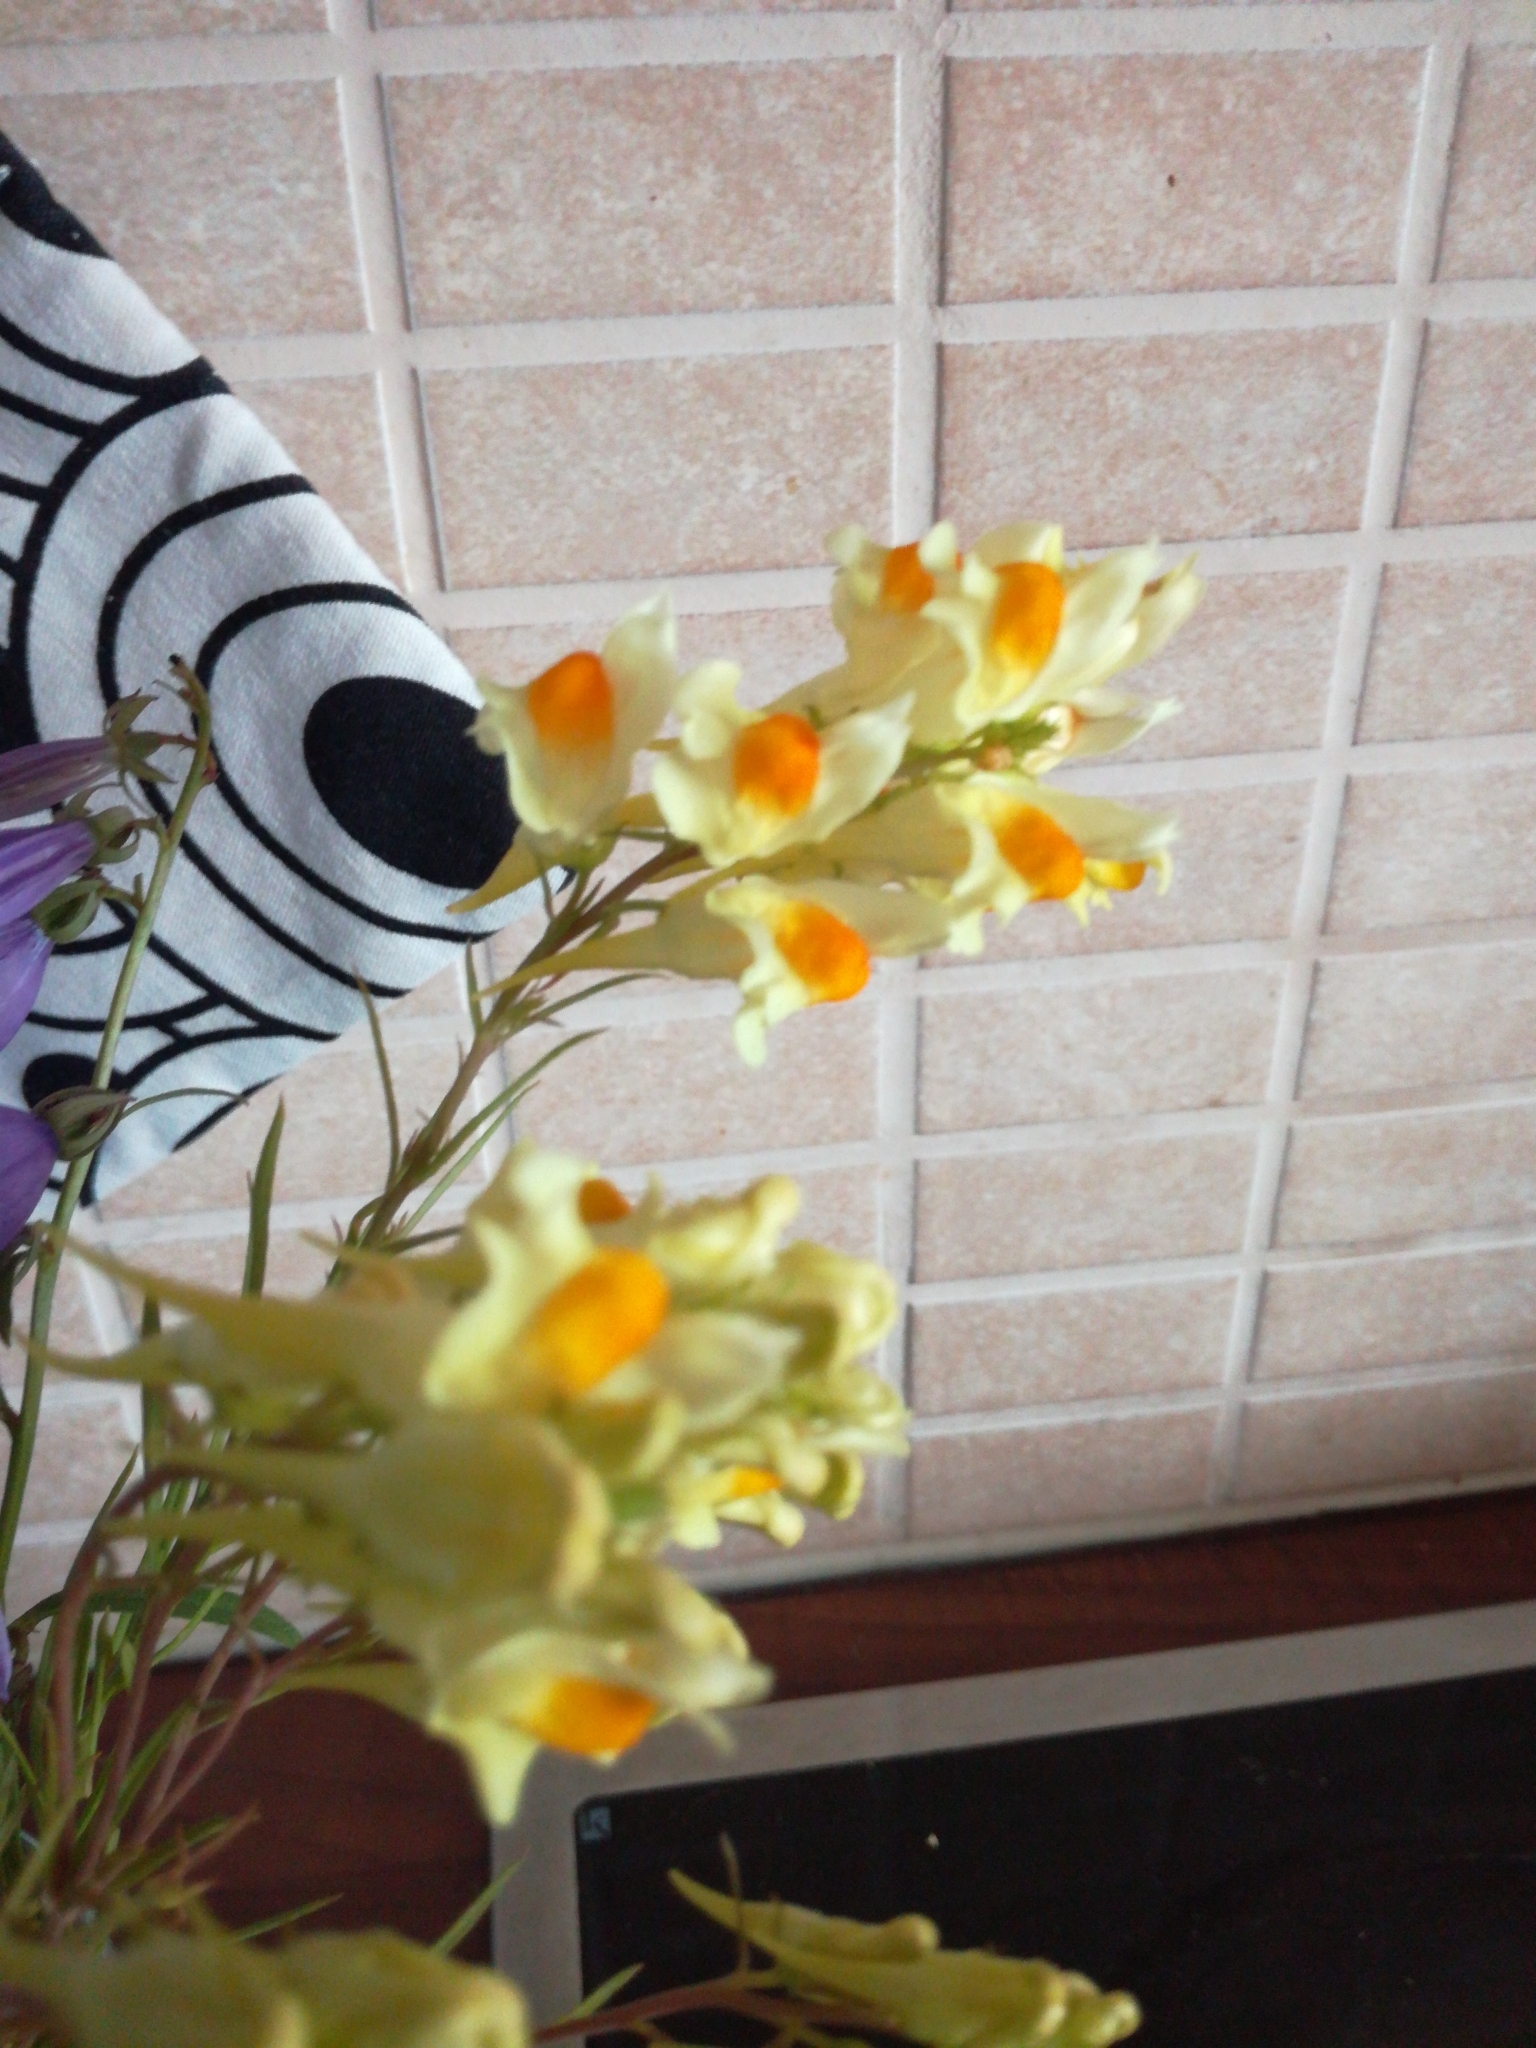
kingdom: Plantae
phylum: Tracheophyta
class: Magnoliopsida
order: Lamiales
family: Plantaginaceae
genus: Linaria
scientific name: Linaria vulgaris
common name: Butter and eggs
